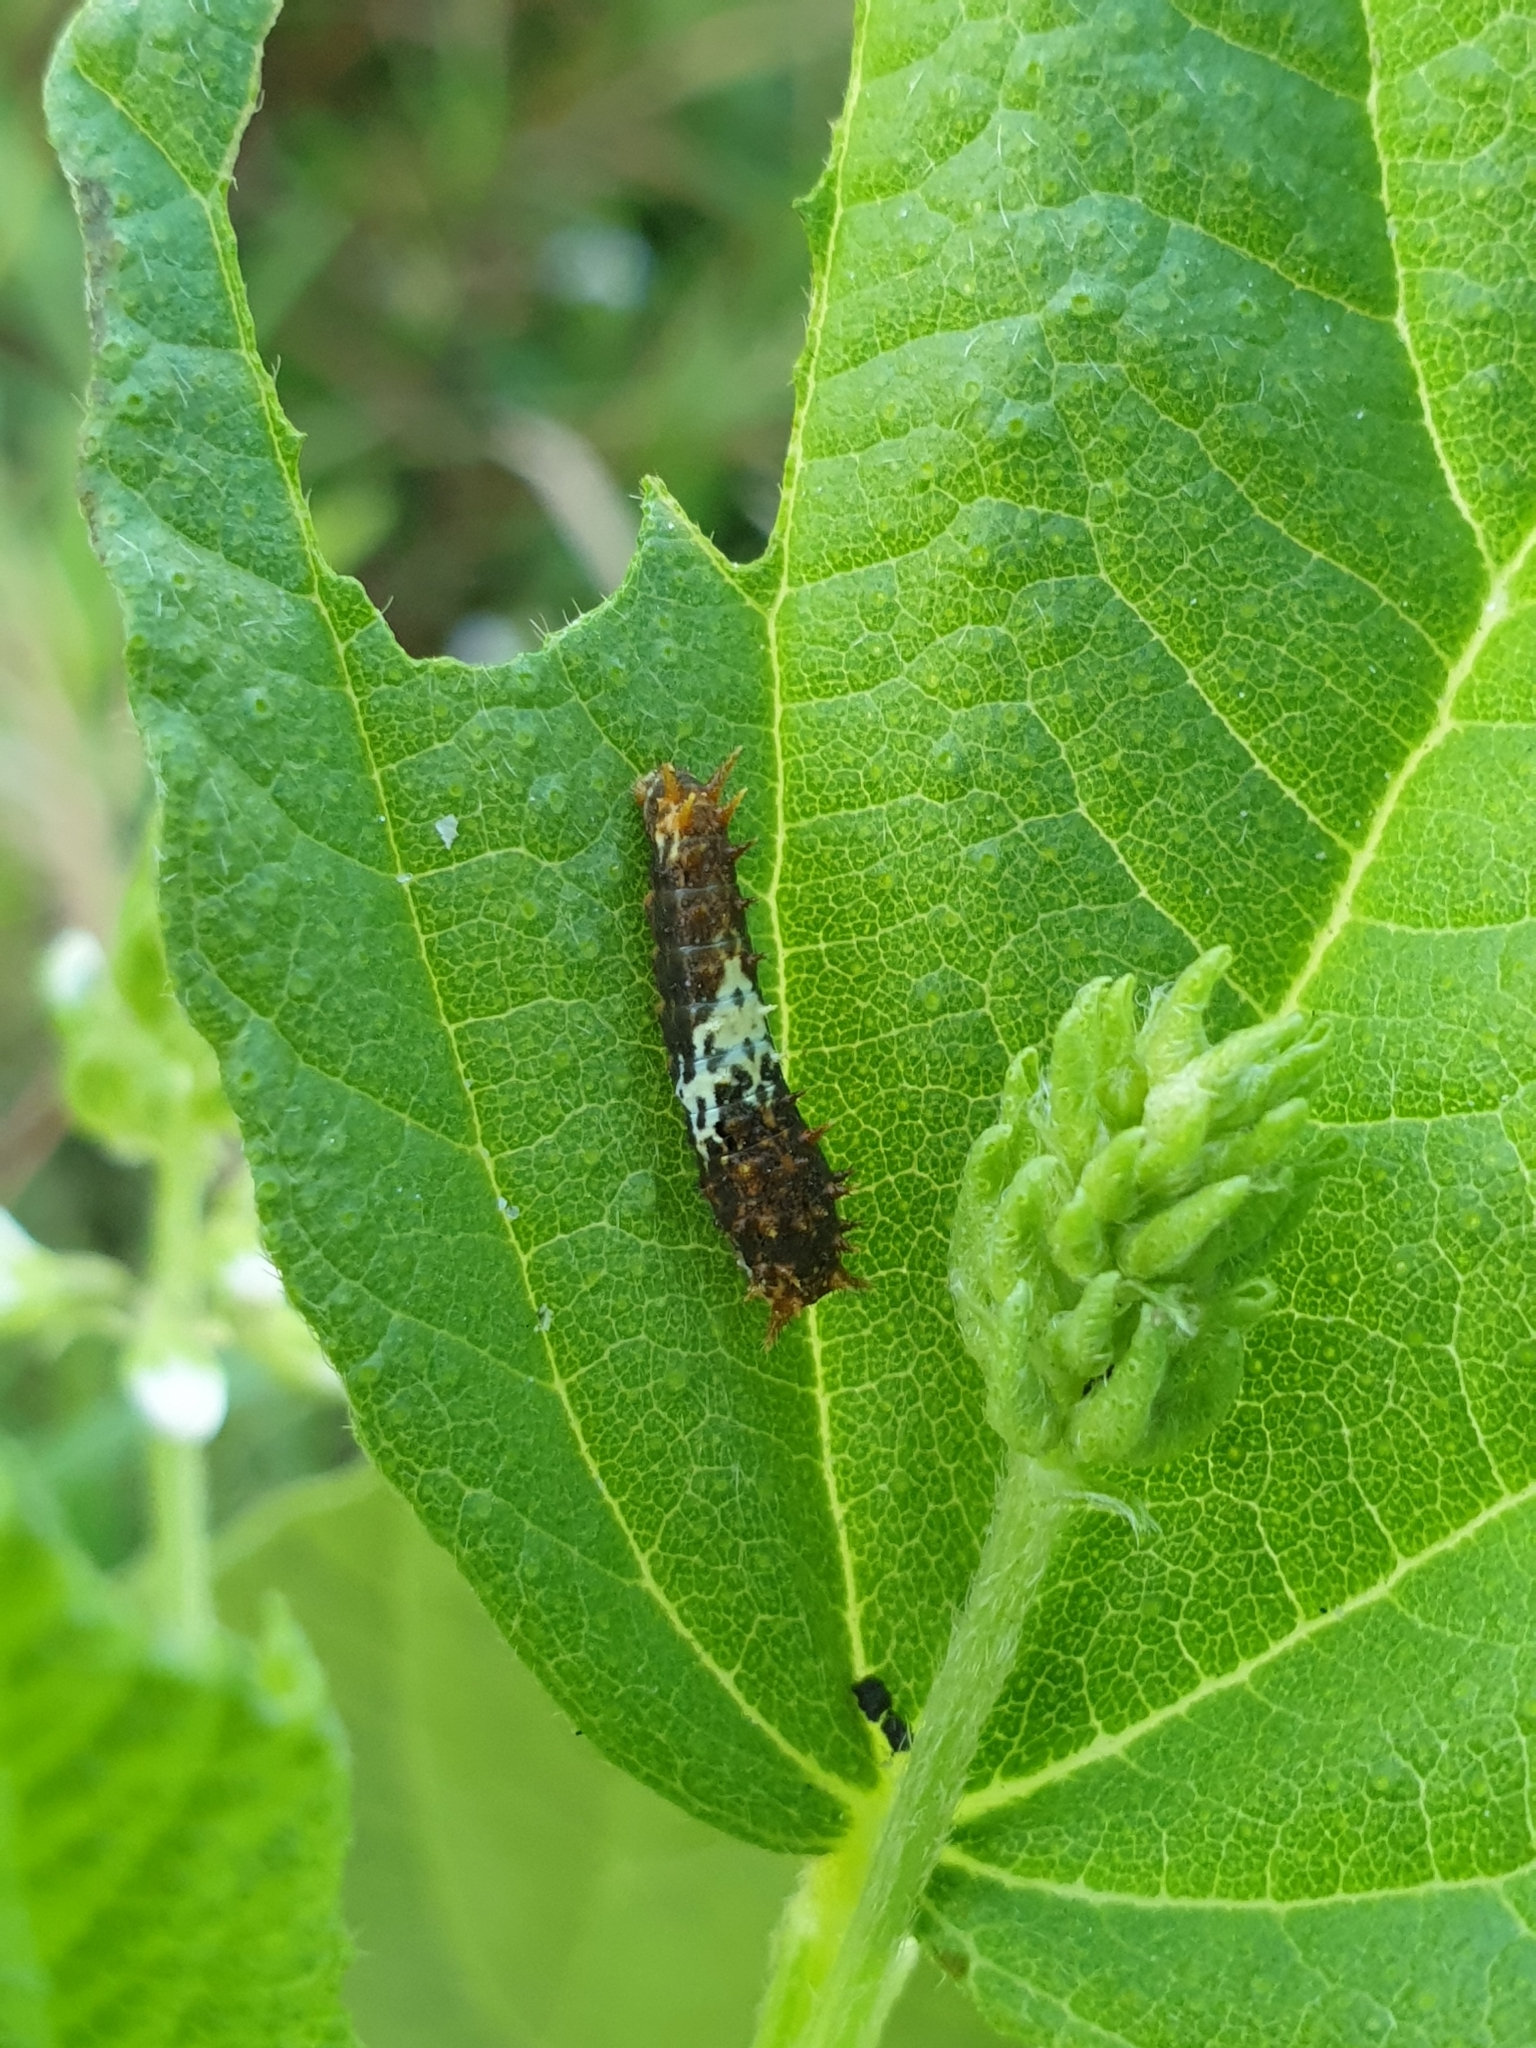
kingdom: Animalia
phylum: Arthropoda
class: Insecta
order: Lepidoptera
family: Papilionidae
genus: Papilio
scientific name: Papilio demoleus
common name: Lime butterfly
